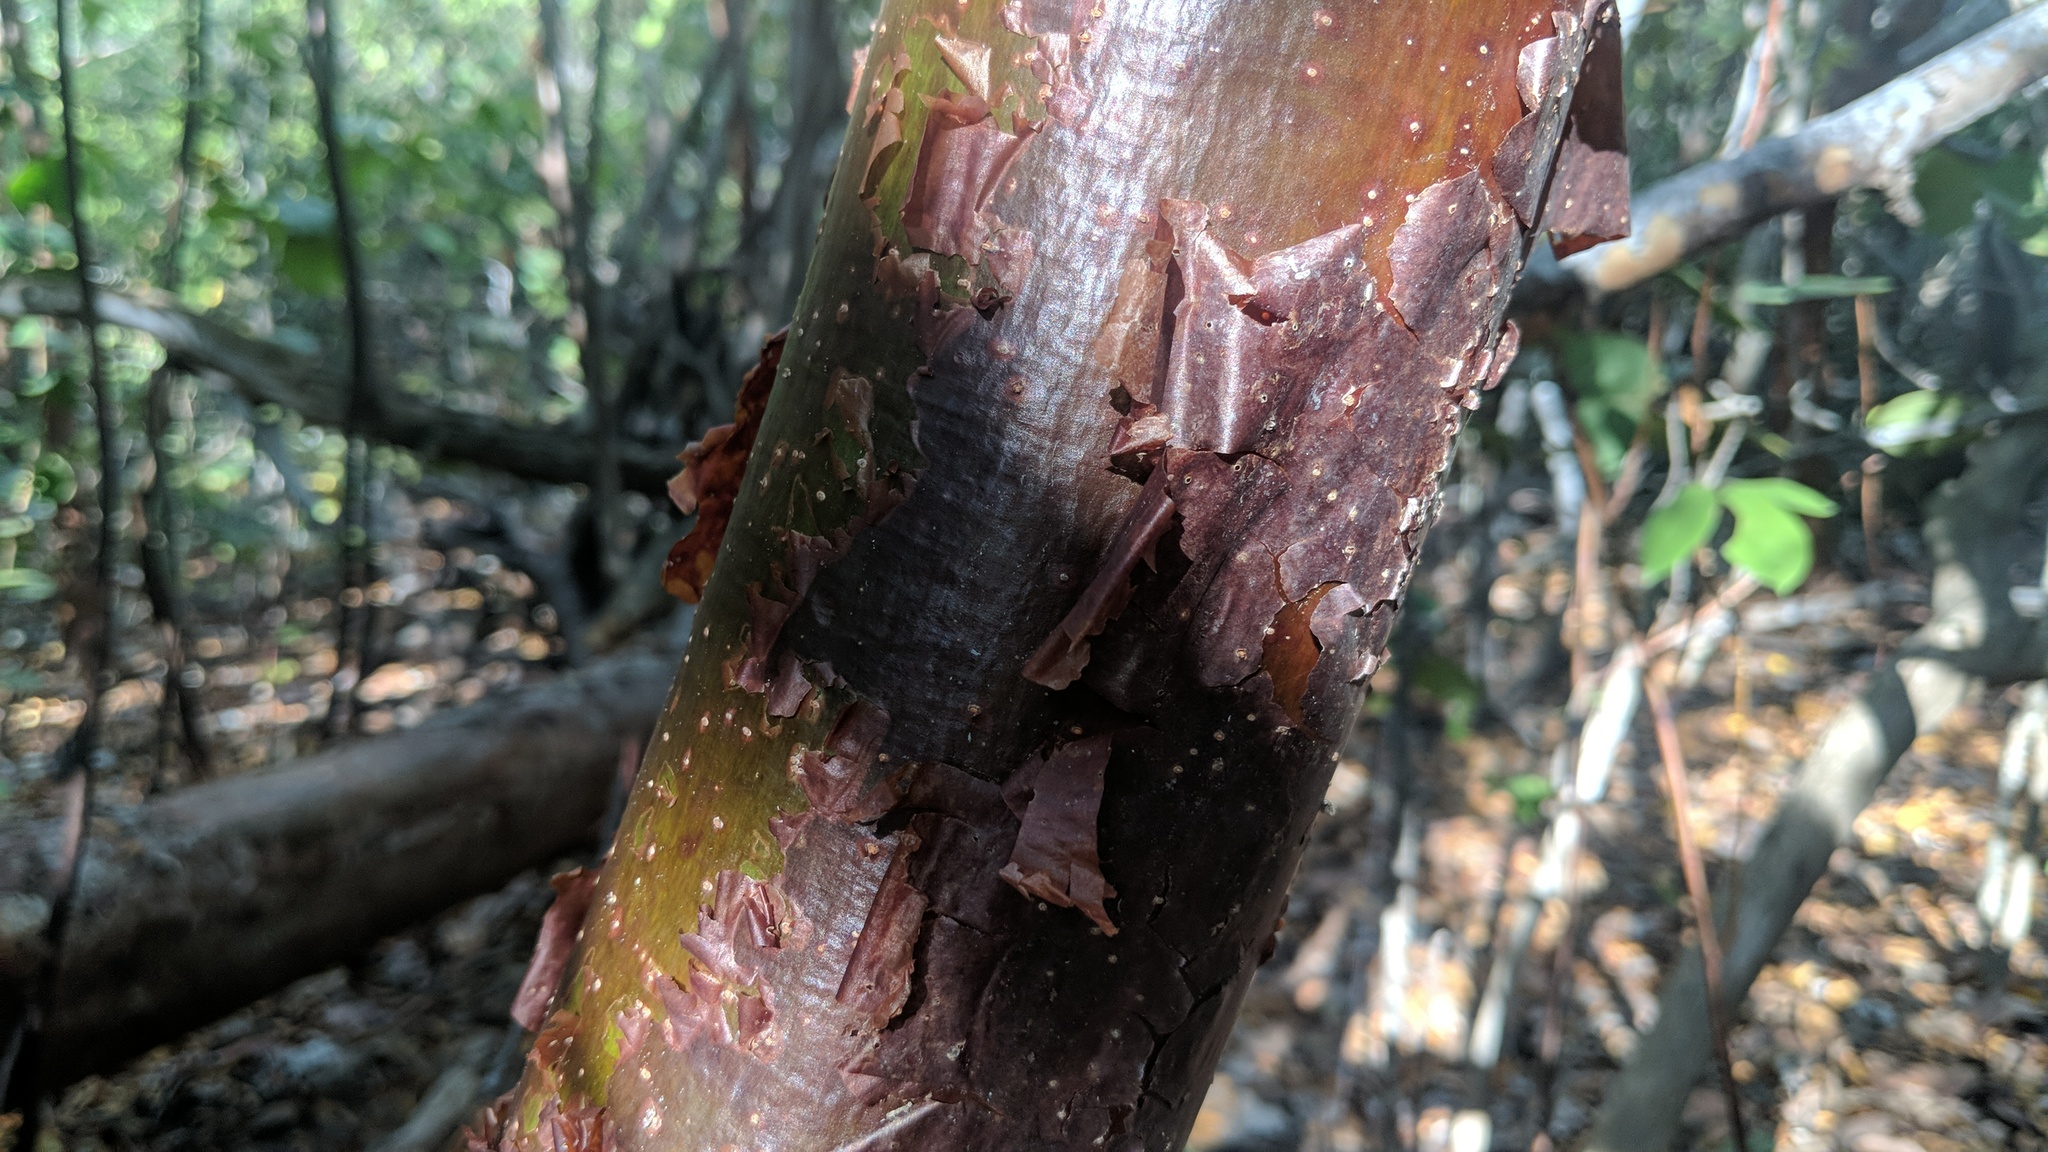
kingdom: Plantae
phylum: Tracheophyta
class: Magnoliopsida
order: Sapindales
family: Burseraceae
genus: Bursera
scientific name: Bursera simaruba
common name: Turpentine tree
